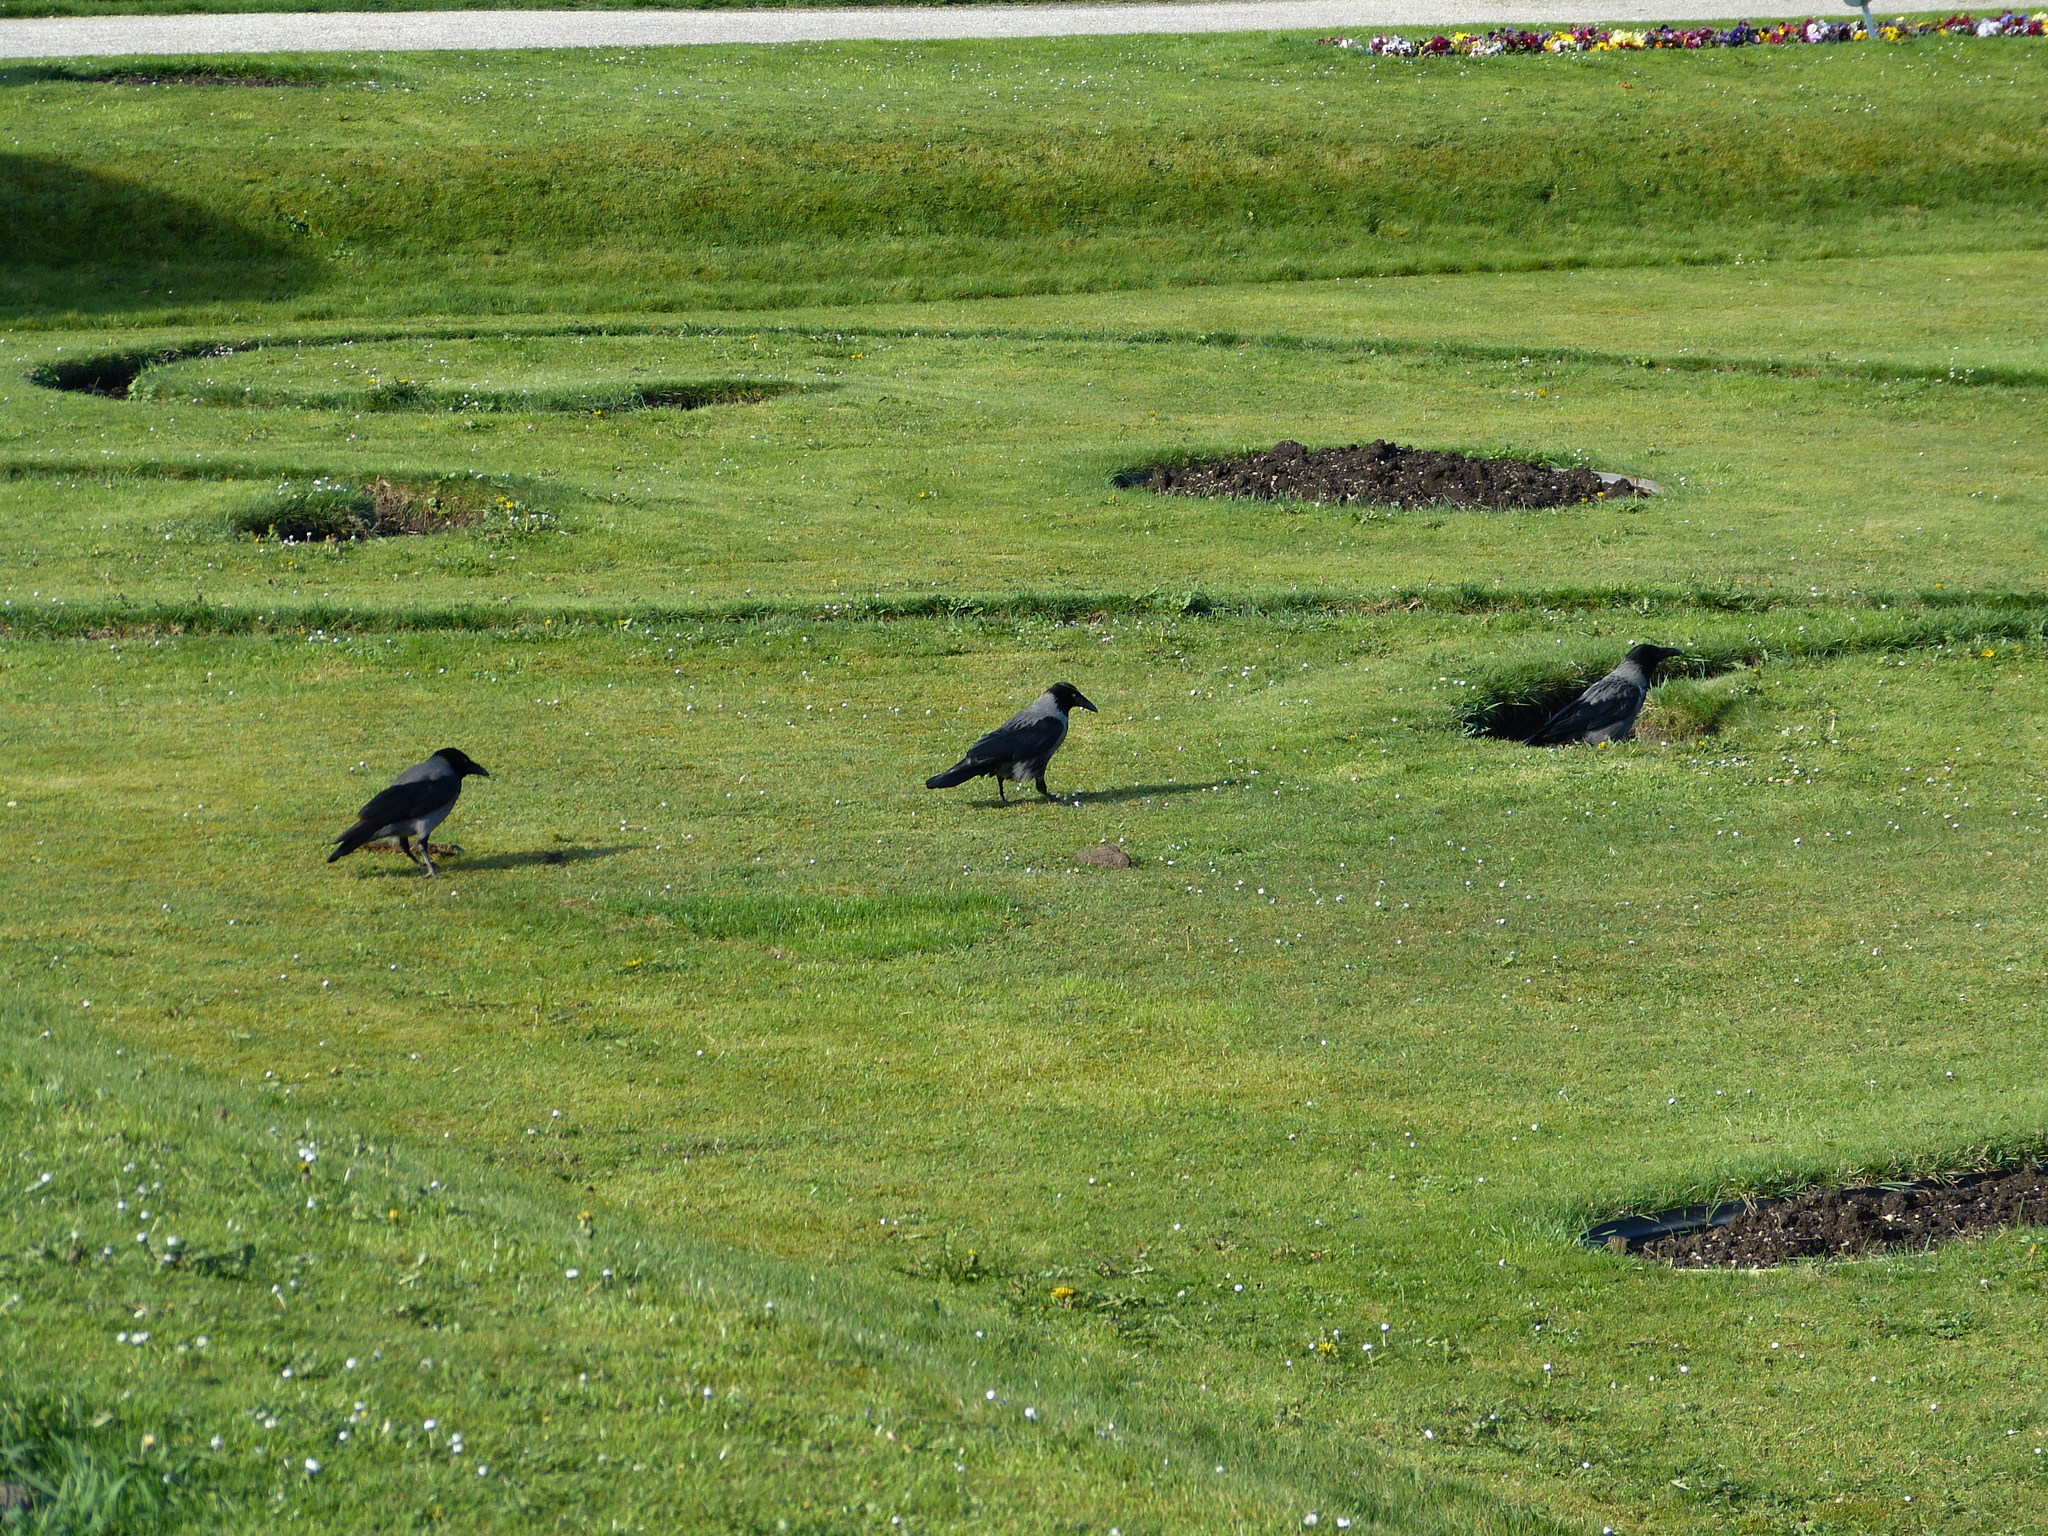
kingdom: Animalia
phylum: Chordata
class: Aves
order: Passeriformes
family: Corvidae
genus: Corvus
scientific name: Corvus cornix
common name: Hooded crow
